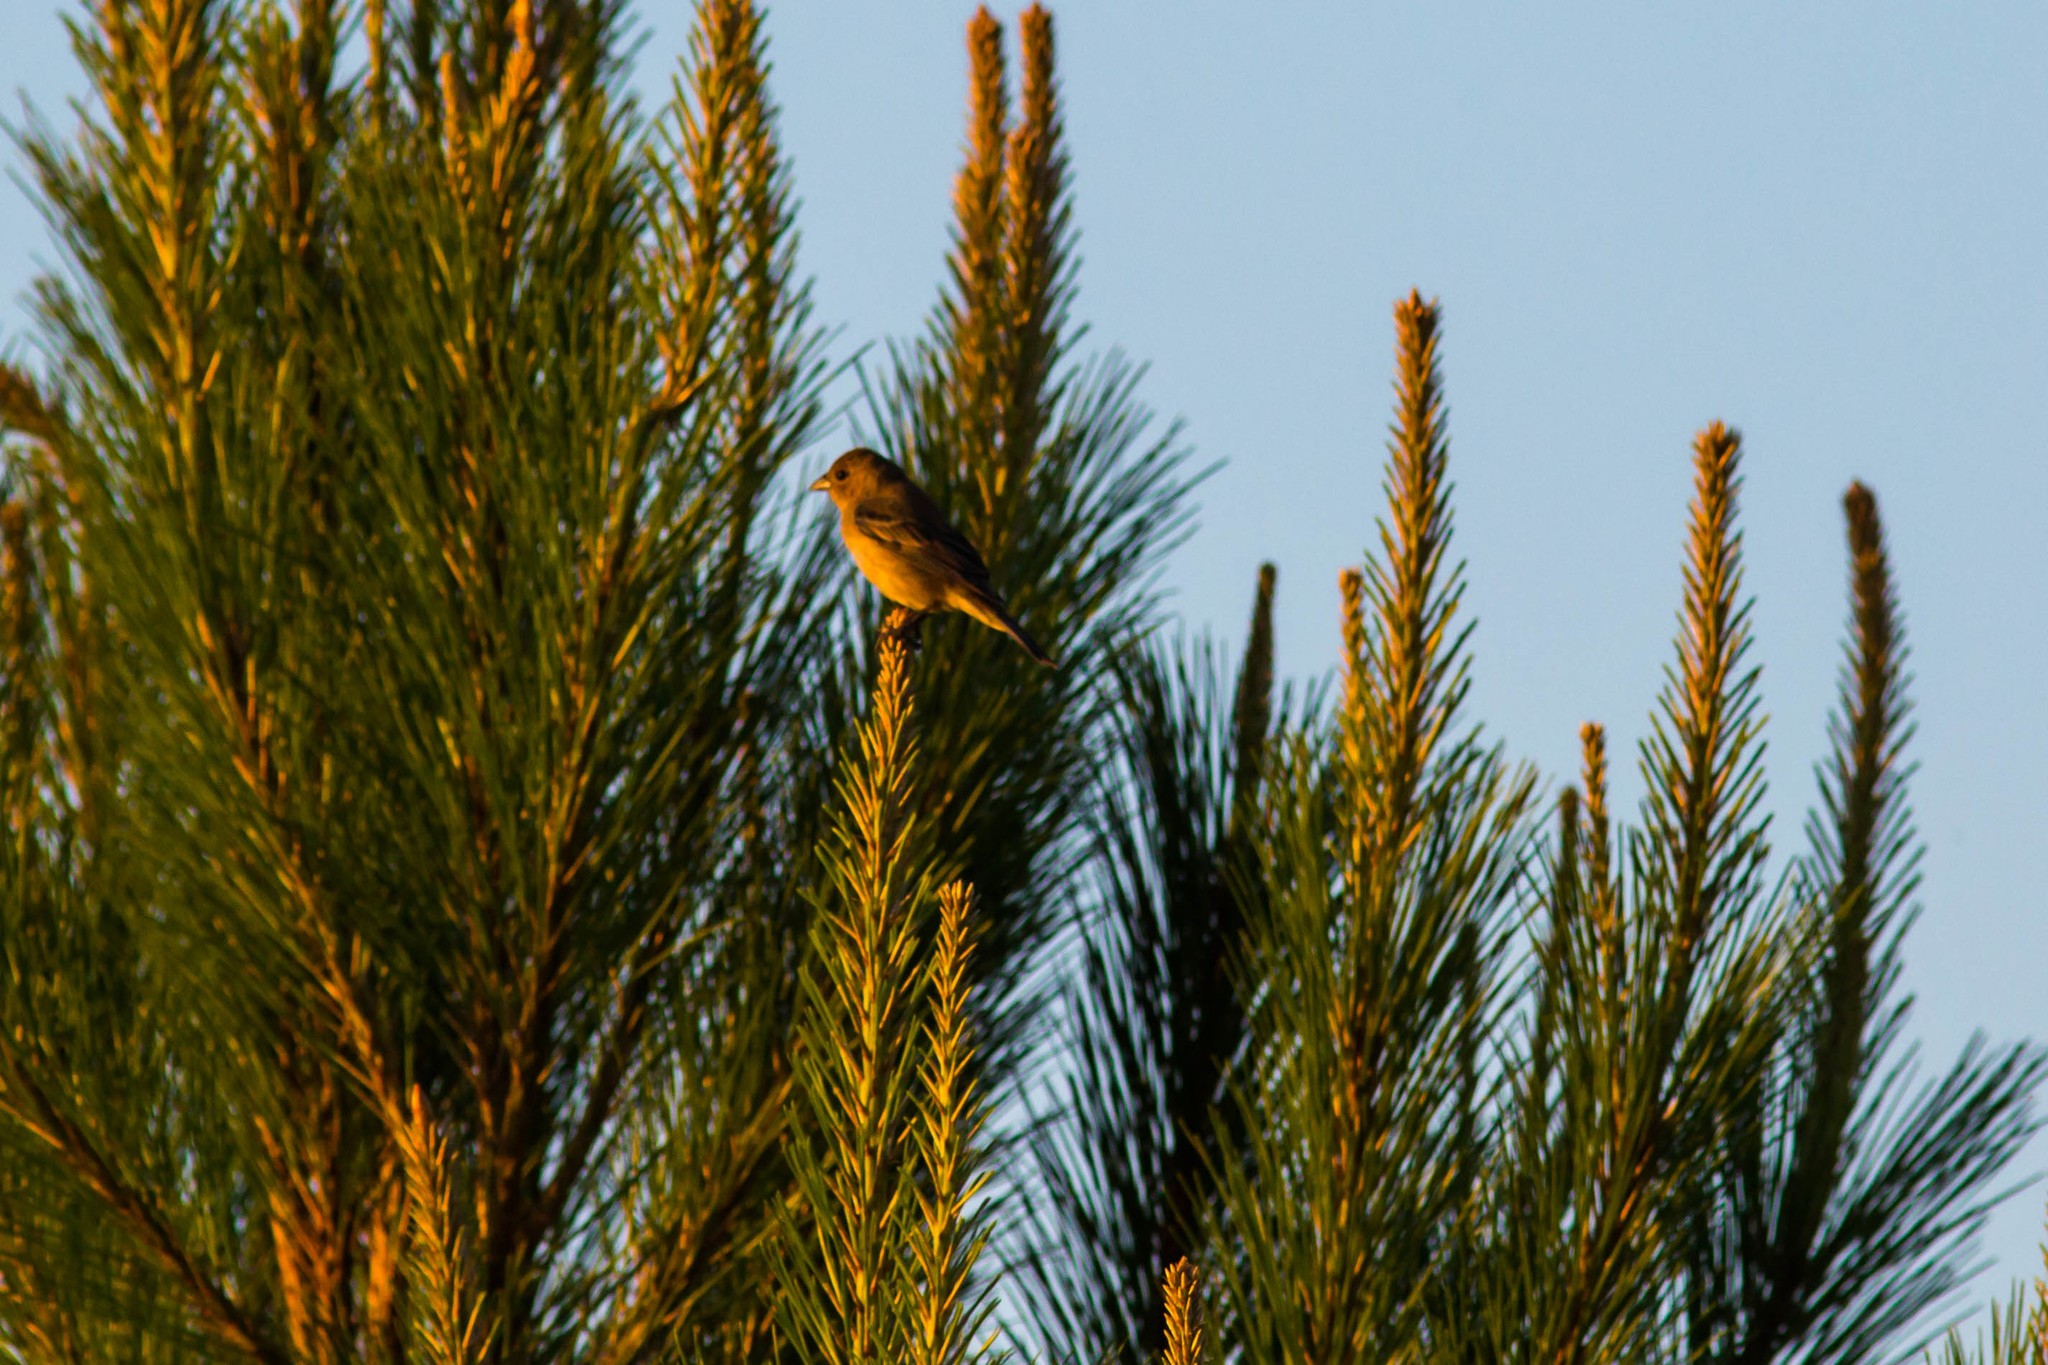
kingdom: Animalia
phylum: Chordata
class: Aves
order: Passeriformes
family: Cardinalidae
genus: Passerina
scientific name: Passerina cyanea
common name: Indigo bunting
